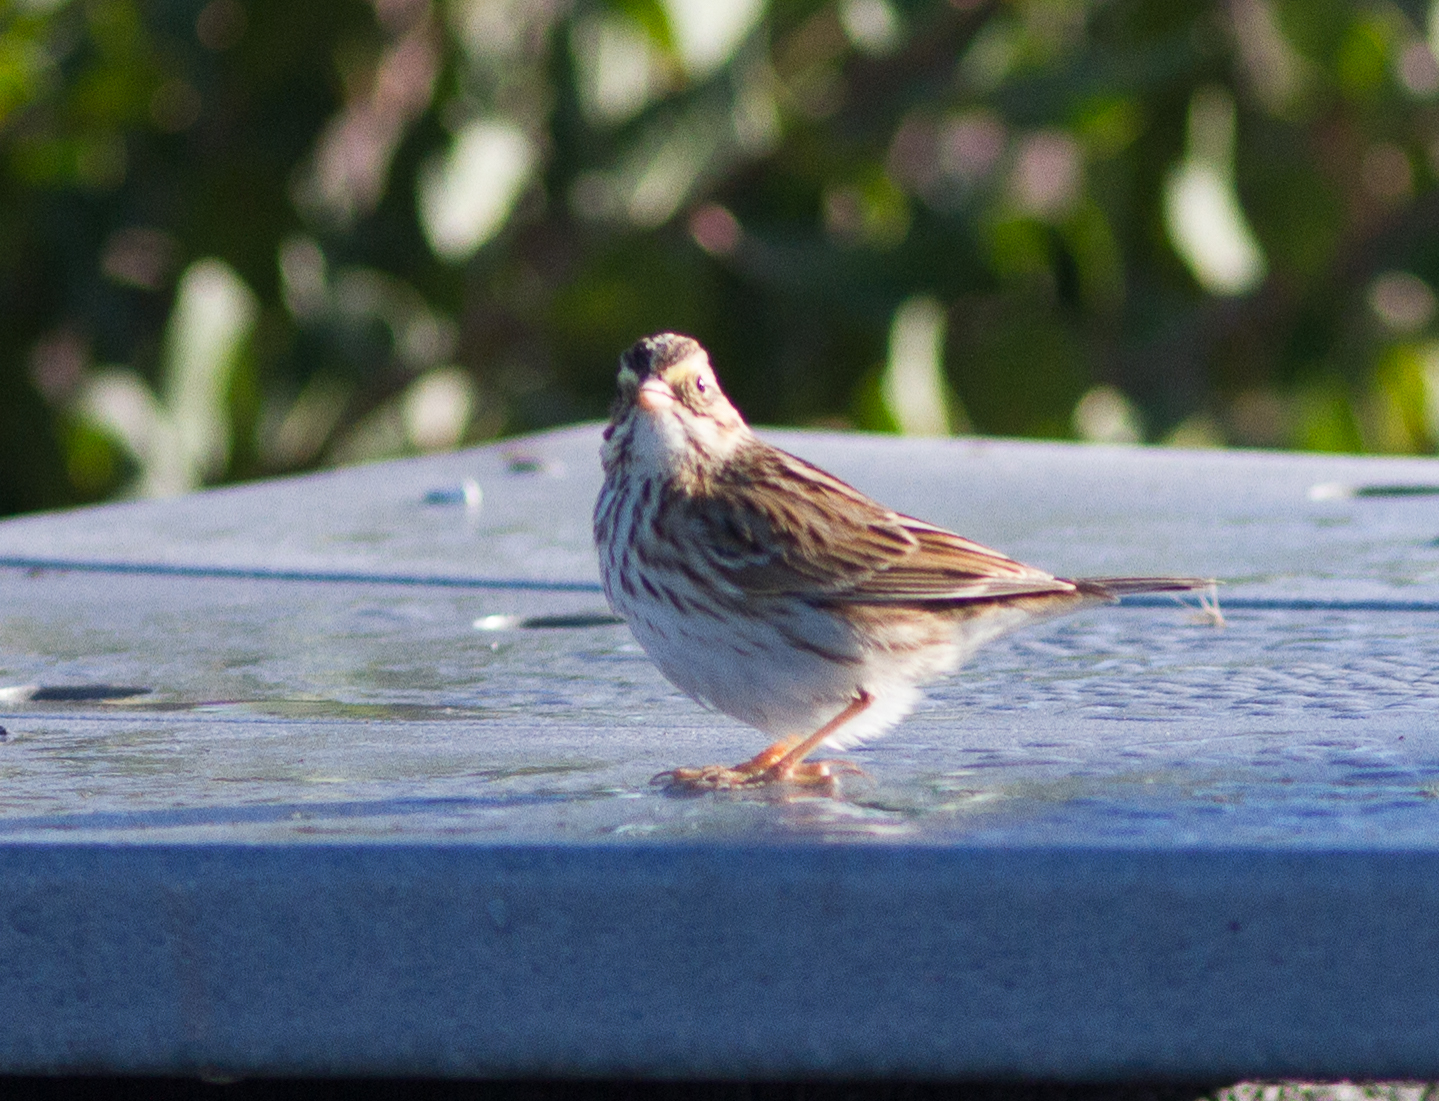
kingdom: Animalia
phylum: Chordata
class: Aves
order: Passeriformes
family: Passerellidae
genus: Passerculus
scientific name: Passerculus sandwichensis
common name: Savannah sparrow
